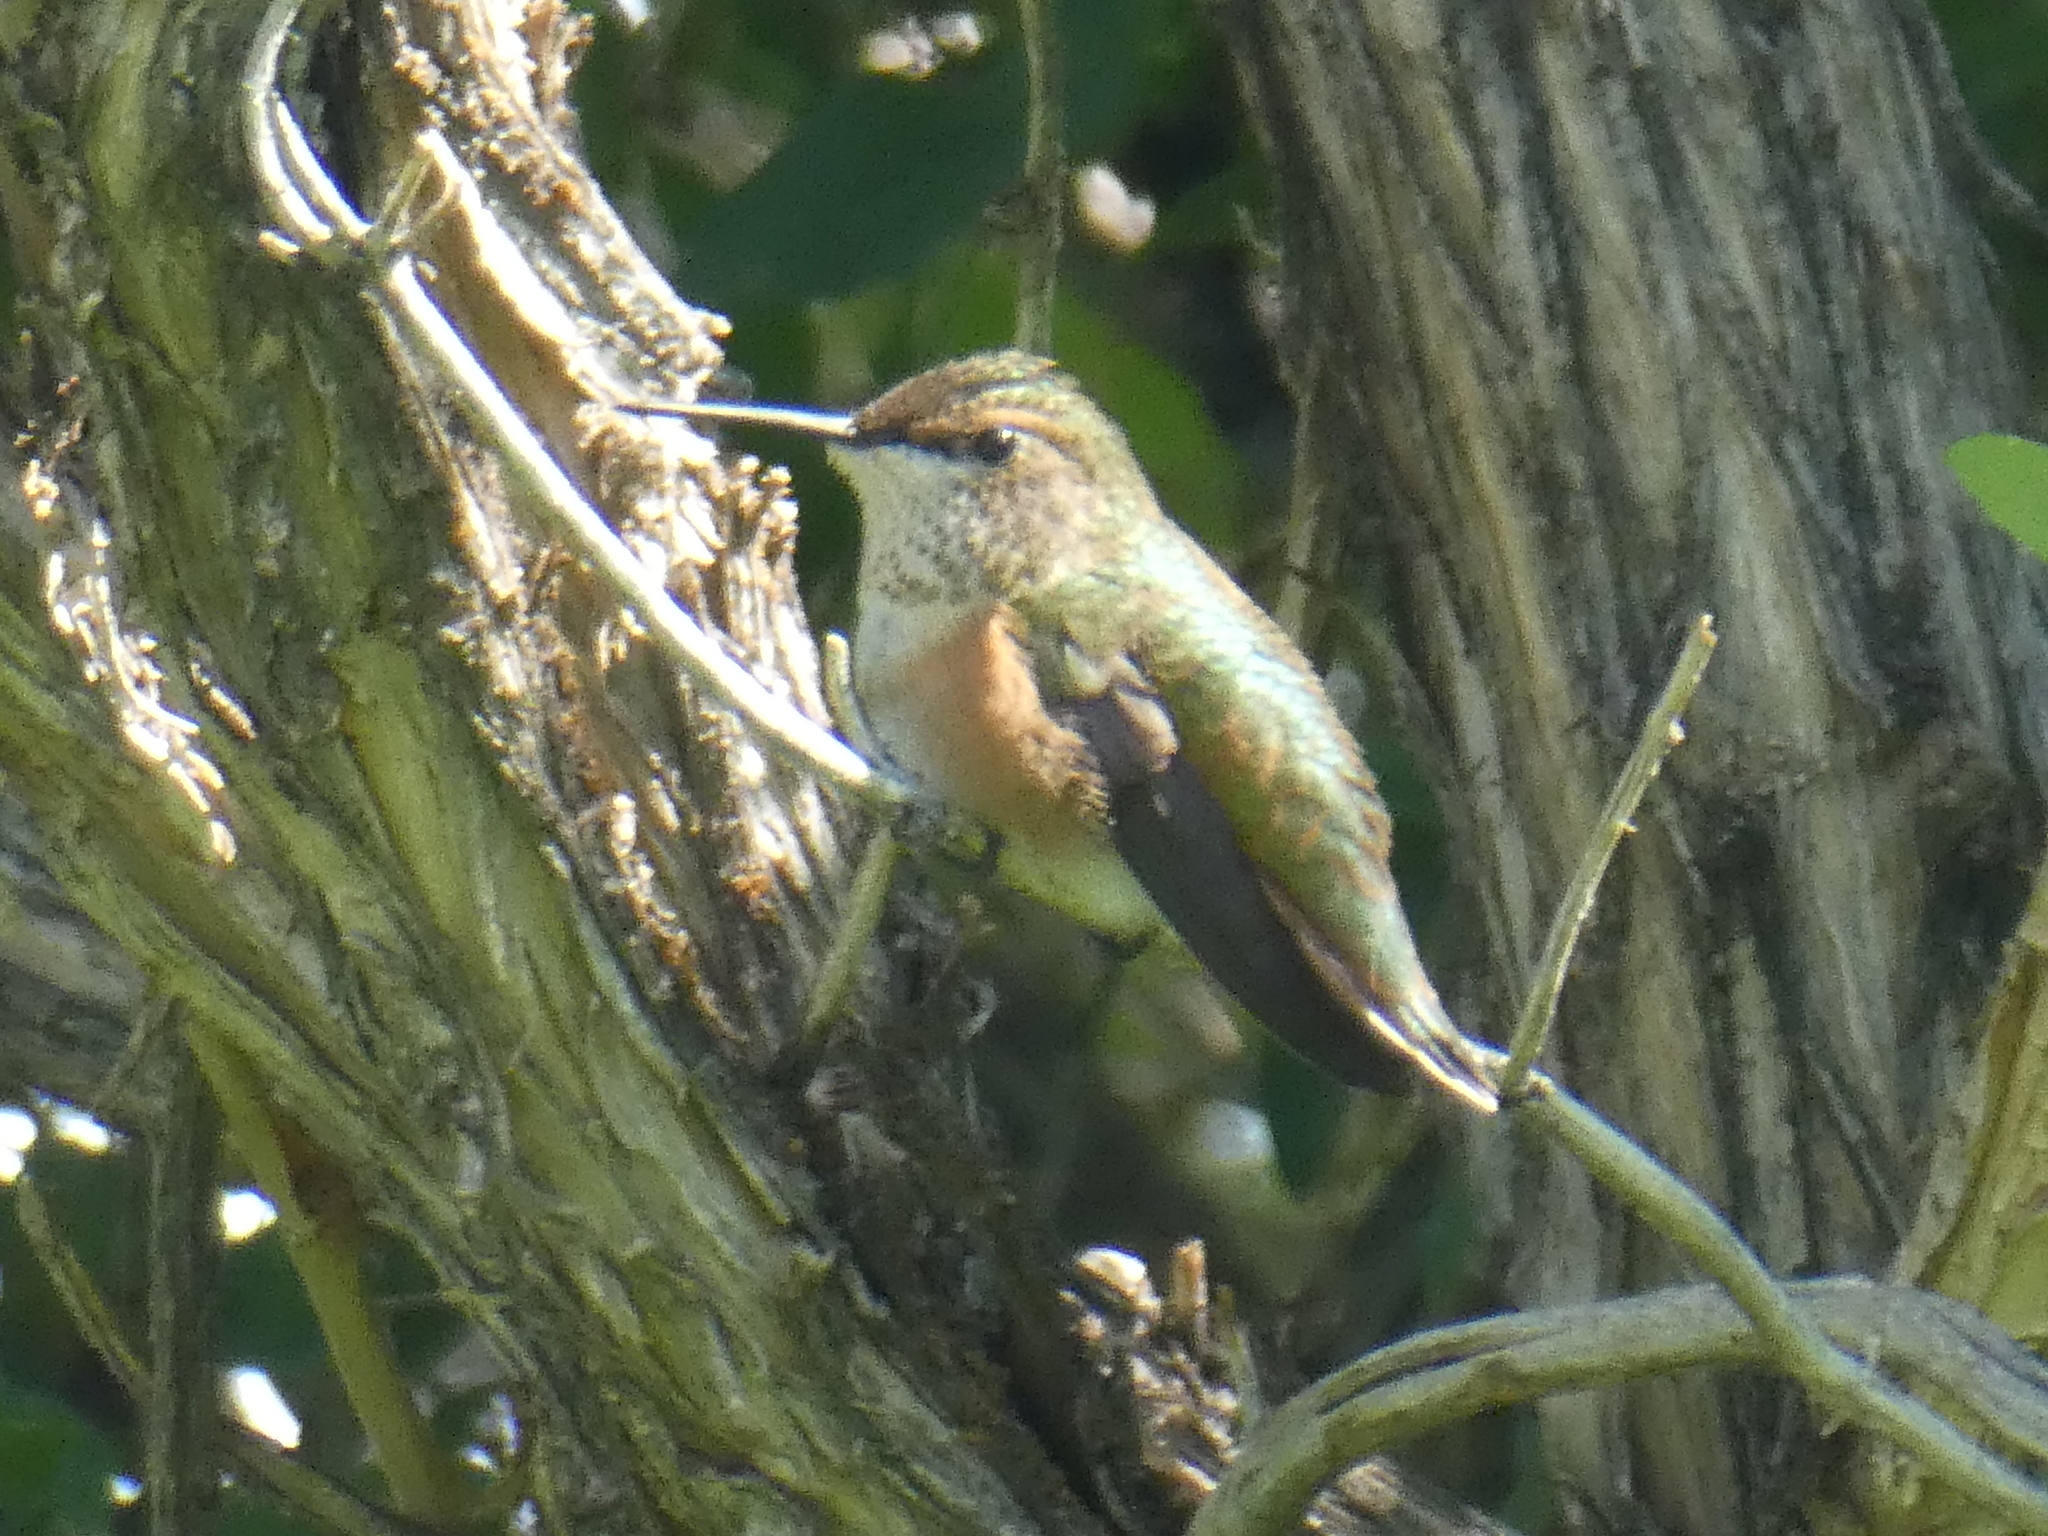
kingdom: Animalia
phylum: Chordata
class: Aves
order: Apodiformes
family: Trochilidae
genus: Selasphorus
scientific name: Selasphorus rufus
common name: Rufous hummingbird
